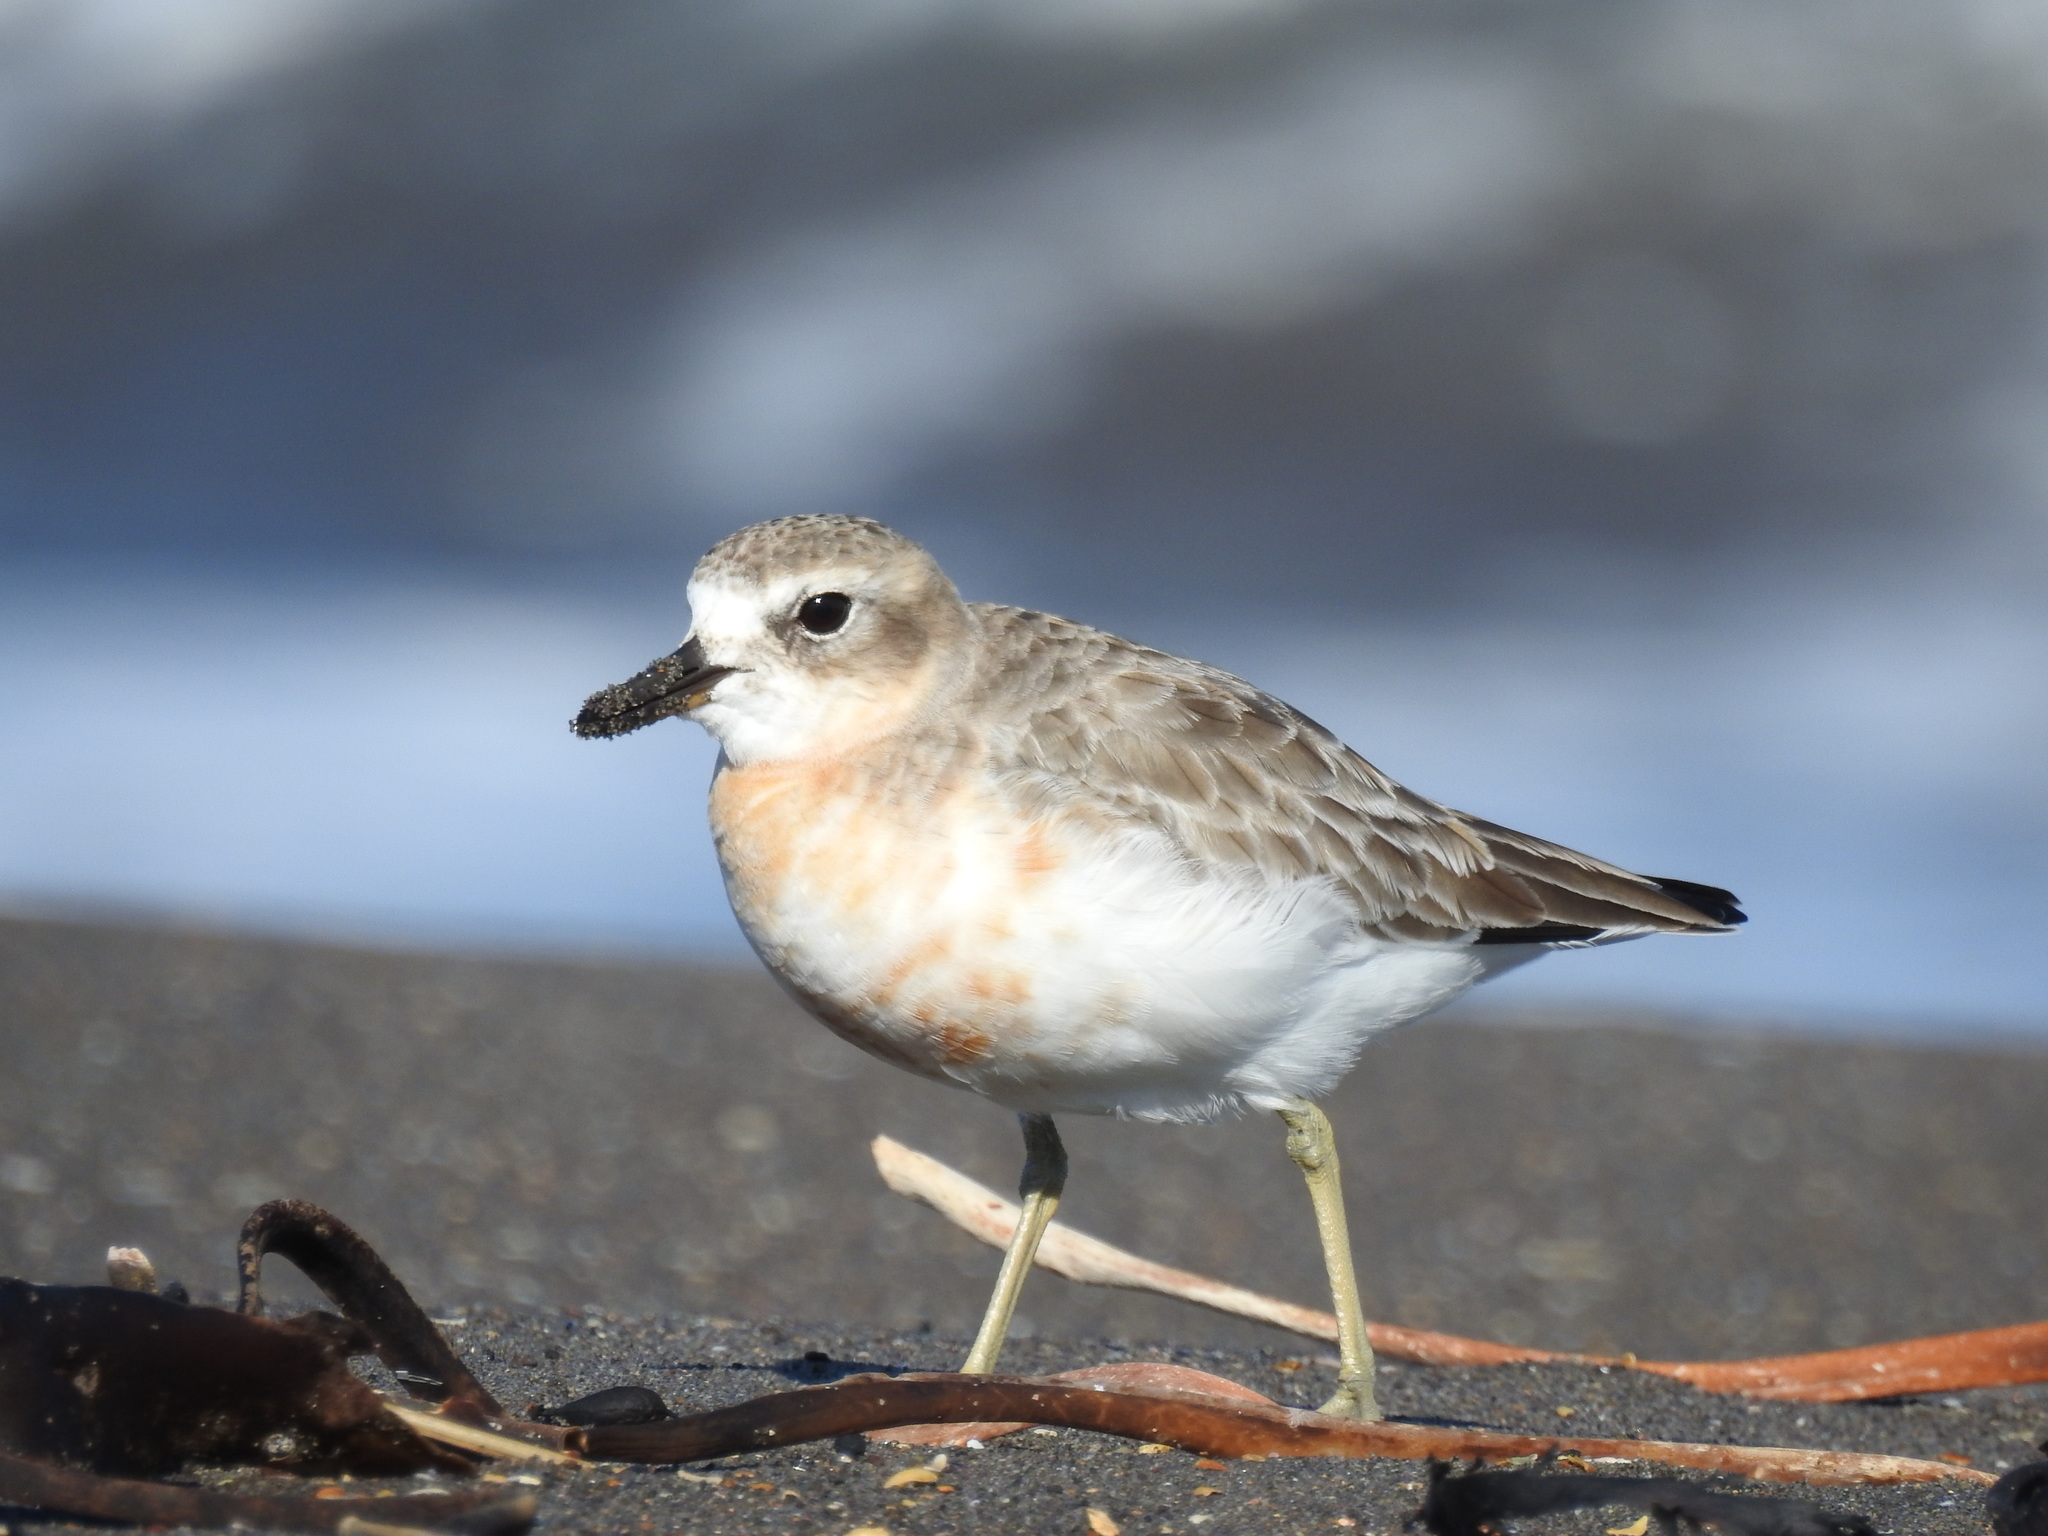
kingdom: Animalia
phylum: Chordata
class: Aves
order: Charadriiformes
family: Charadriidae
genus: Anarhynchus
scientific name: Anarhynchus
